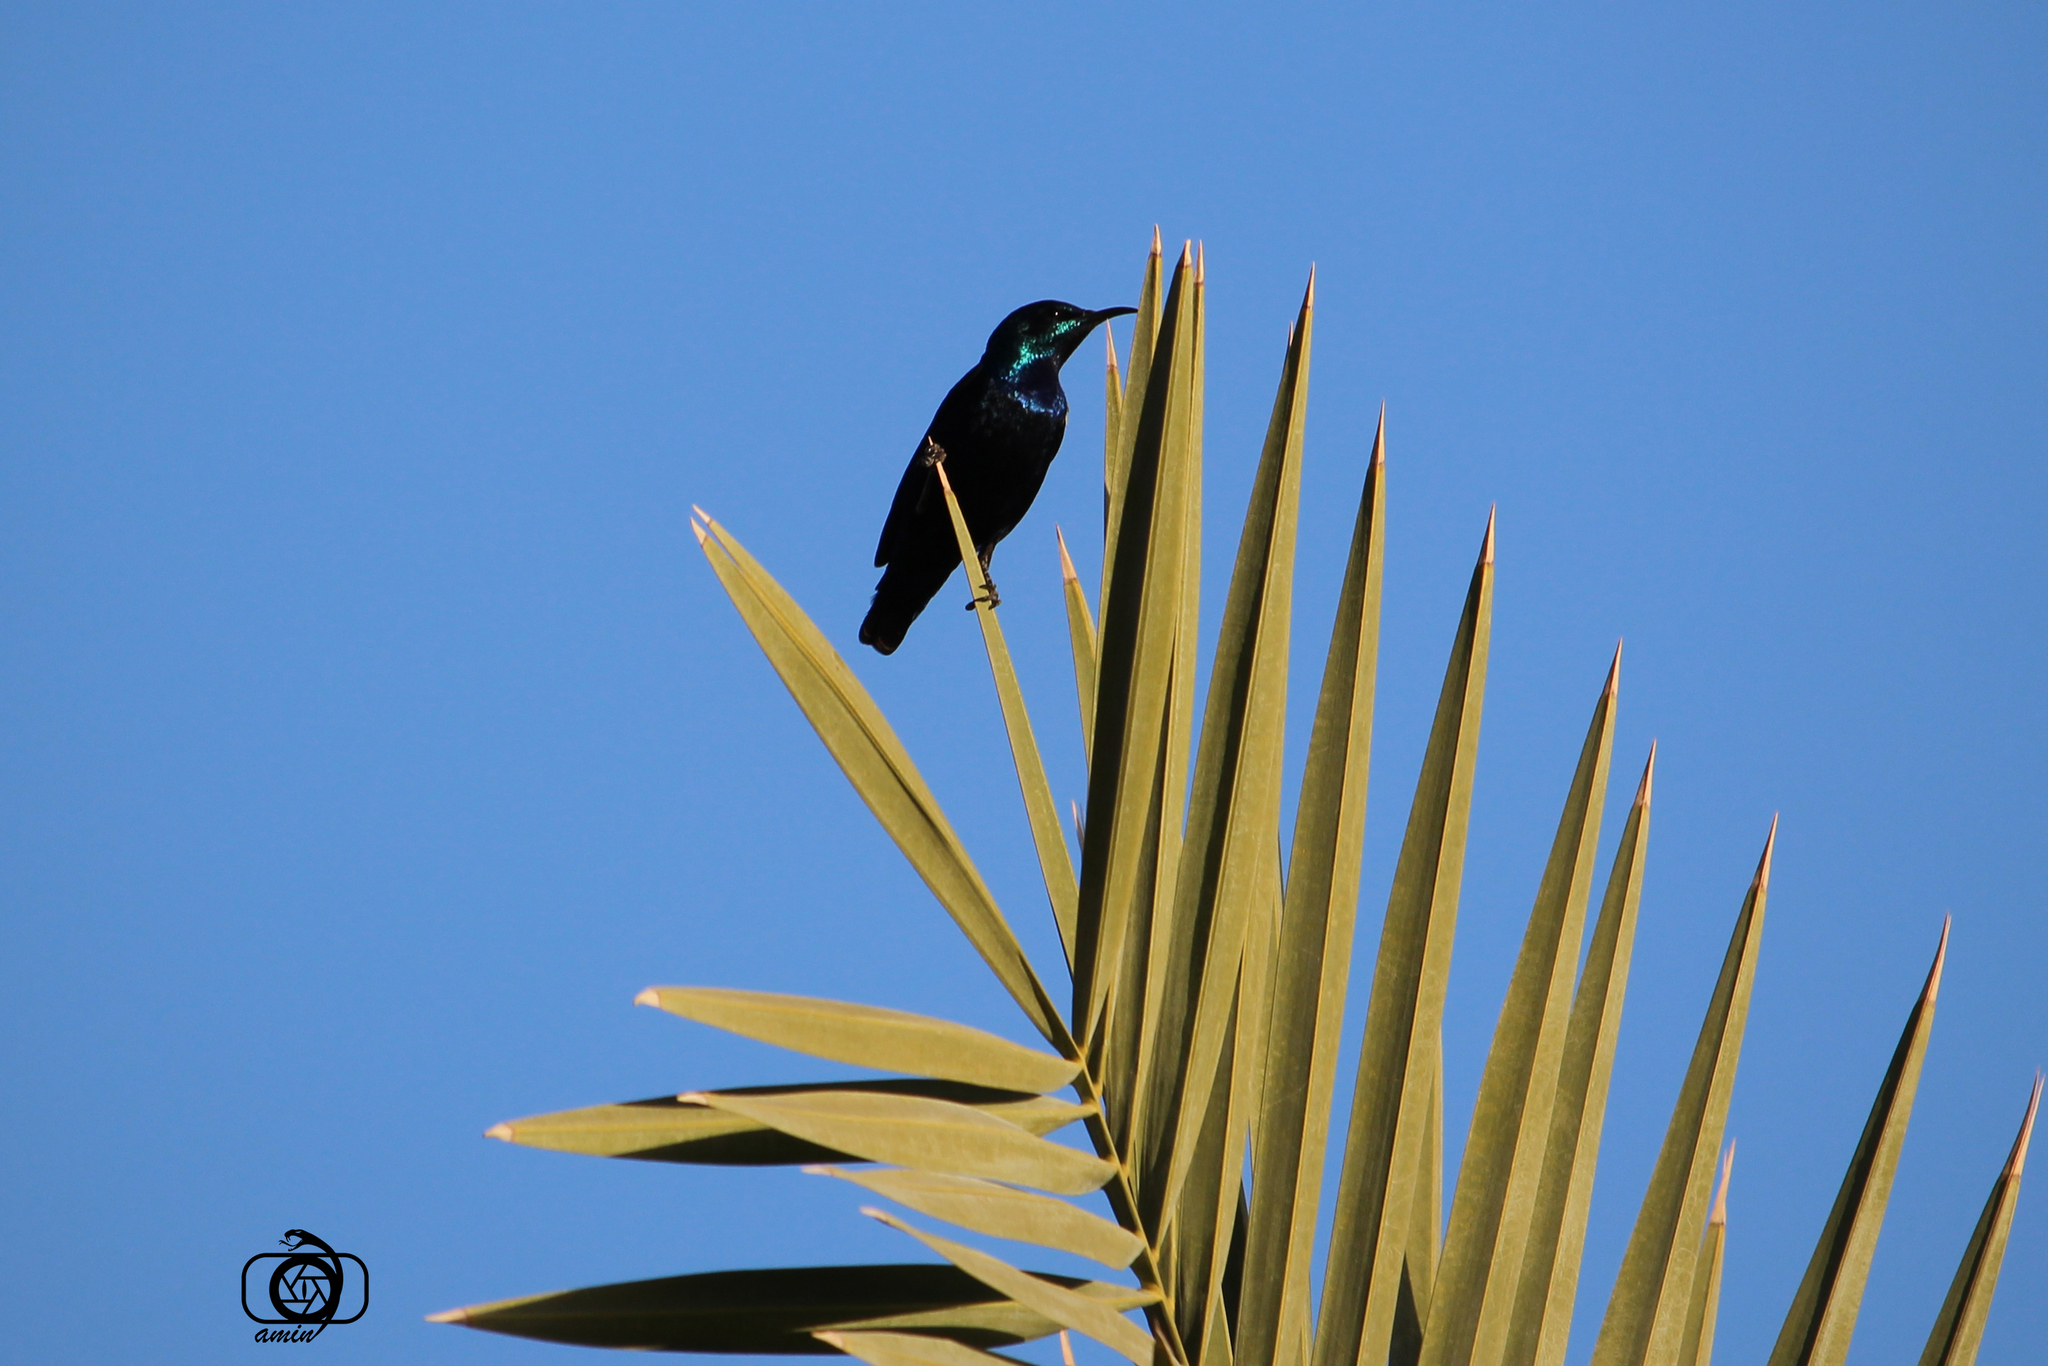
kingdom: Animalia
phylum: Chordata
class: Aves
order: Passeriformes
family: Nectariniidae
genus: Cinnyris
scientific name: Cinnyris asiaticus
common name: Purple sunbird
